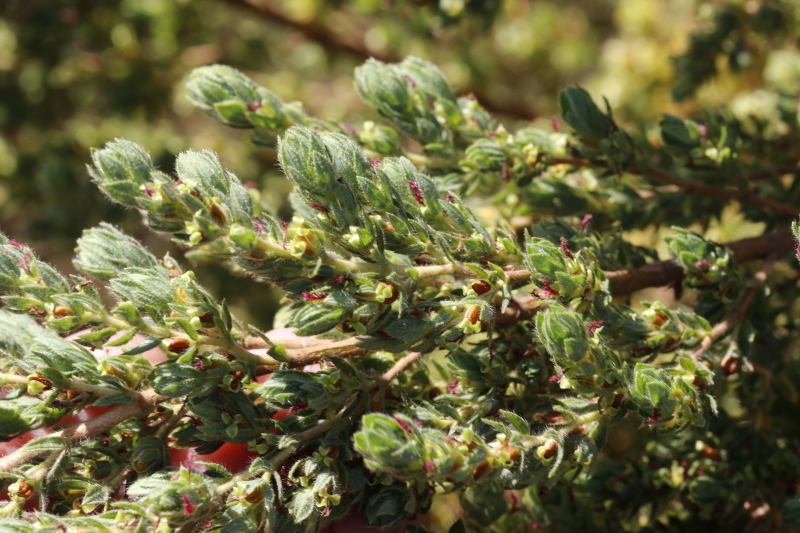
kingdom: Plantae
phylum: Tracheophyta
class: Magnoliopsida
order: Rosales
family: Rosaceae
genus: Cliffortia
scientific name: Cliffortia polygonifolia
